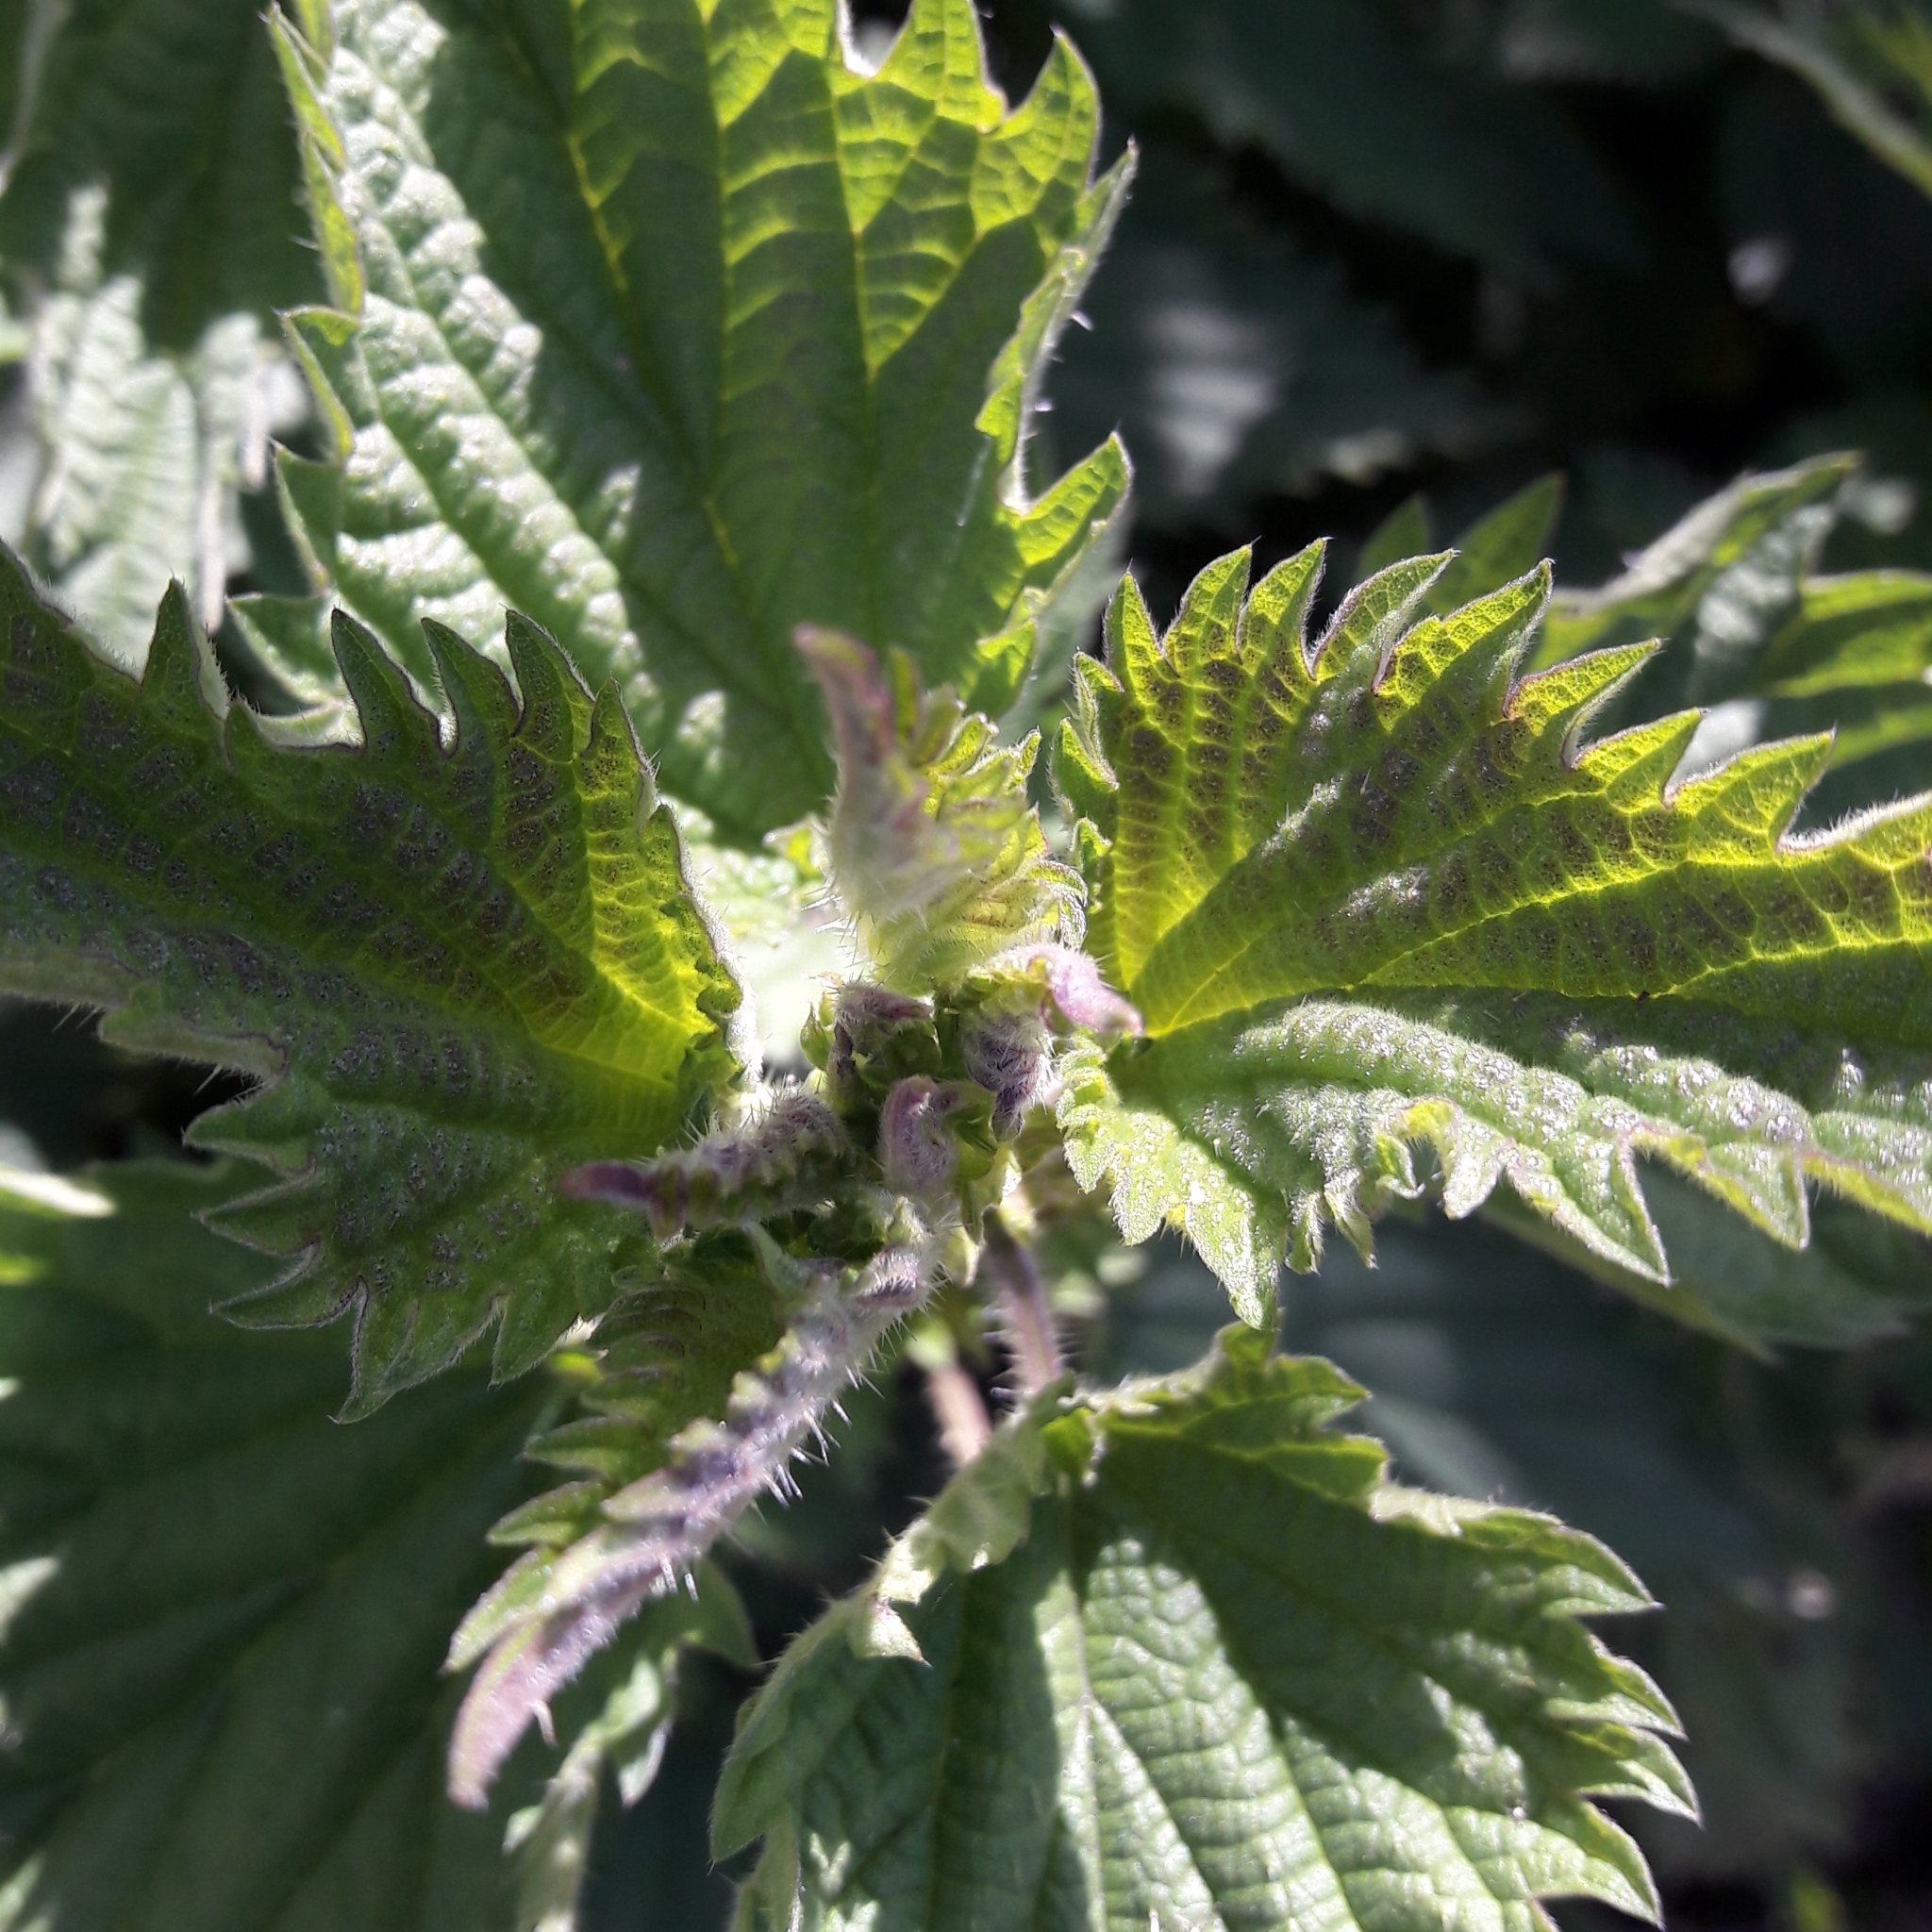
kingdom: Plantae
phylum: Tracheophyta
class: Magnoliopsida
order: Rosales
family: Urticaceae
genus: Urtica
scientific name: Urtica dioica
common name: Common nettle
